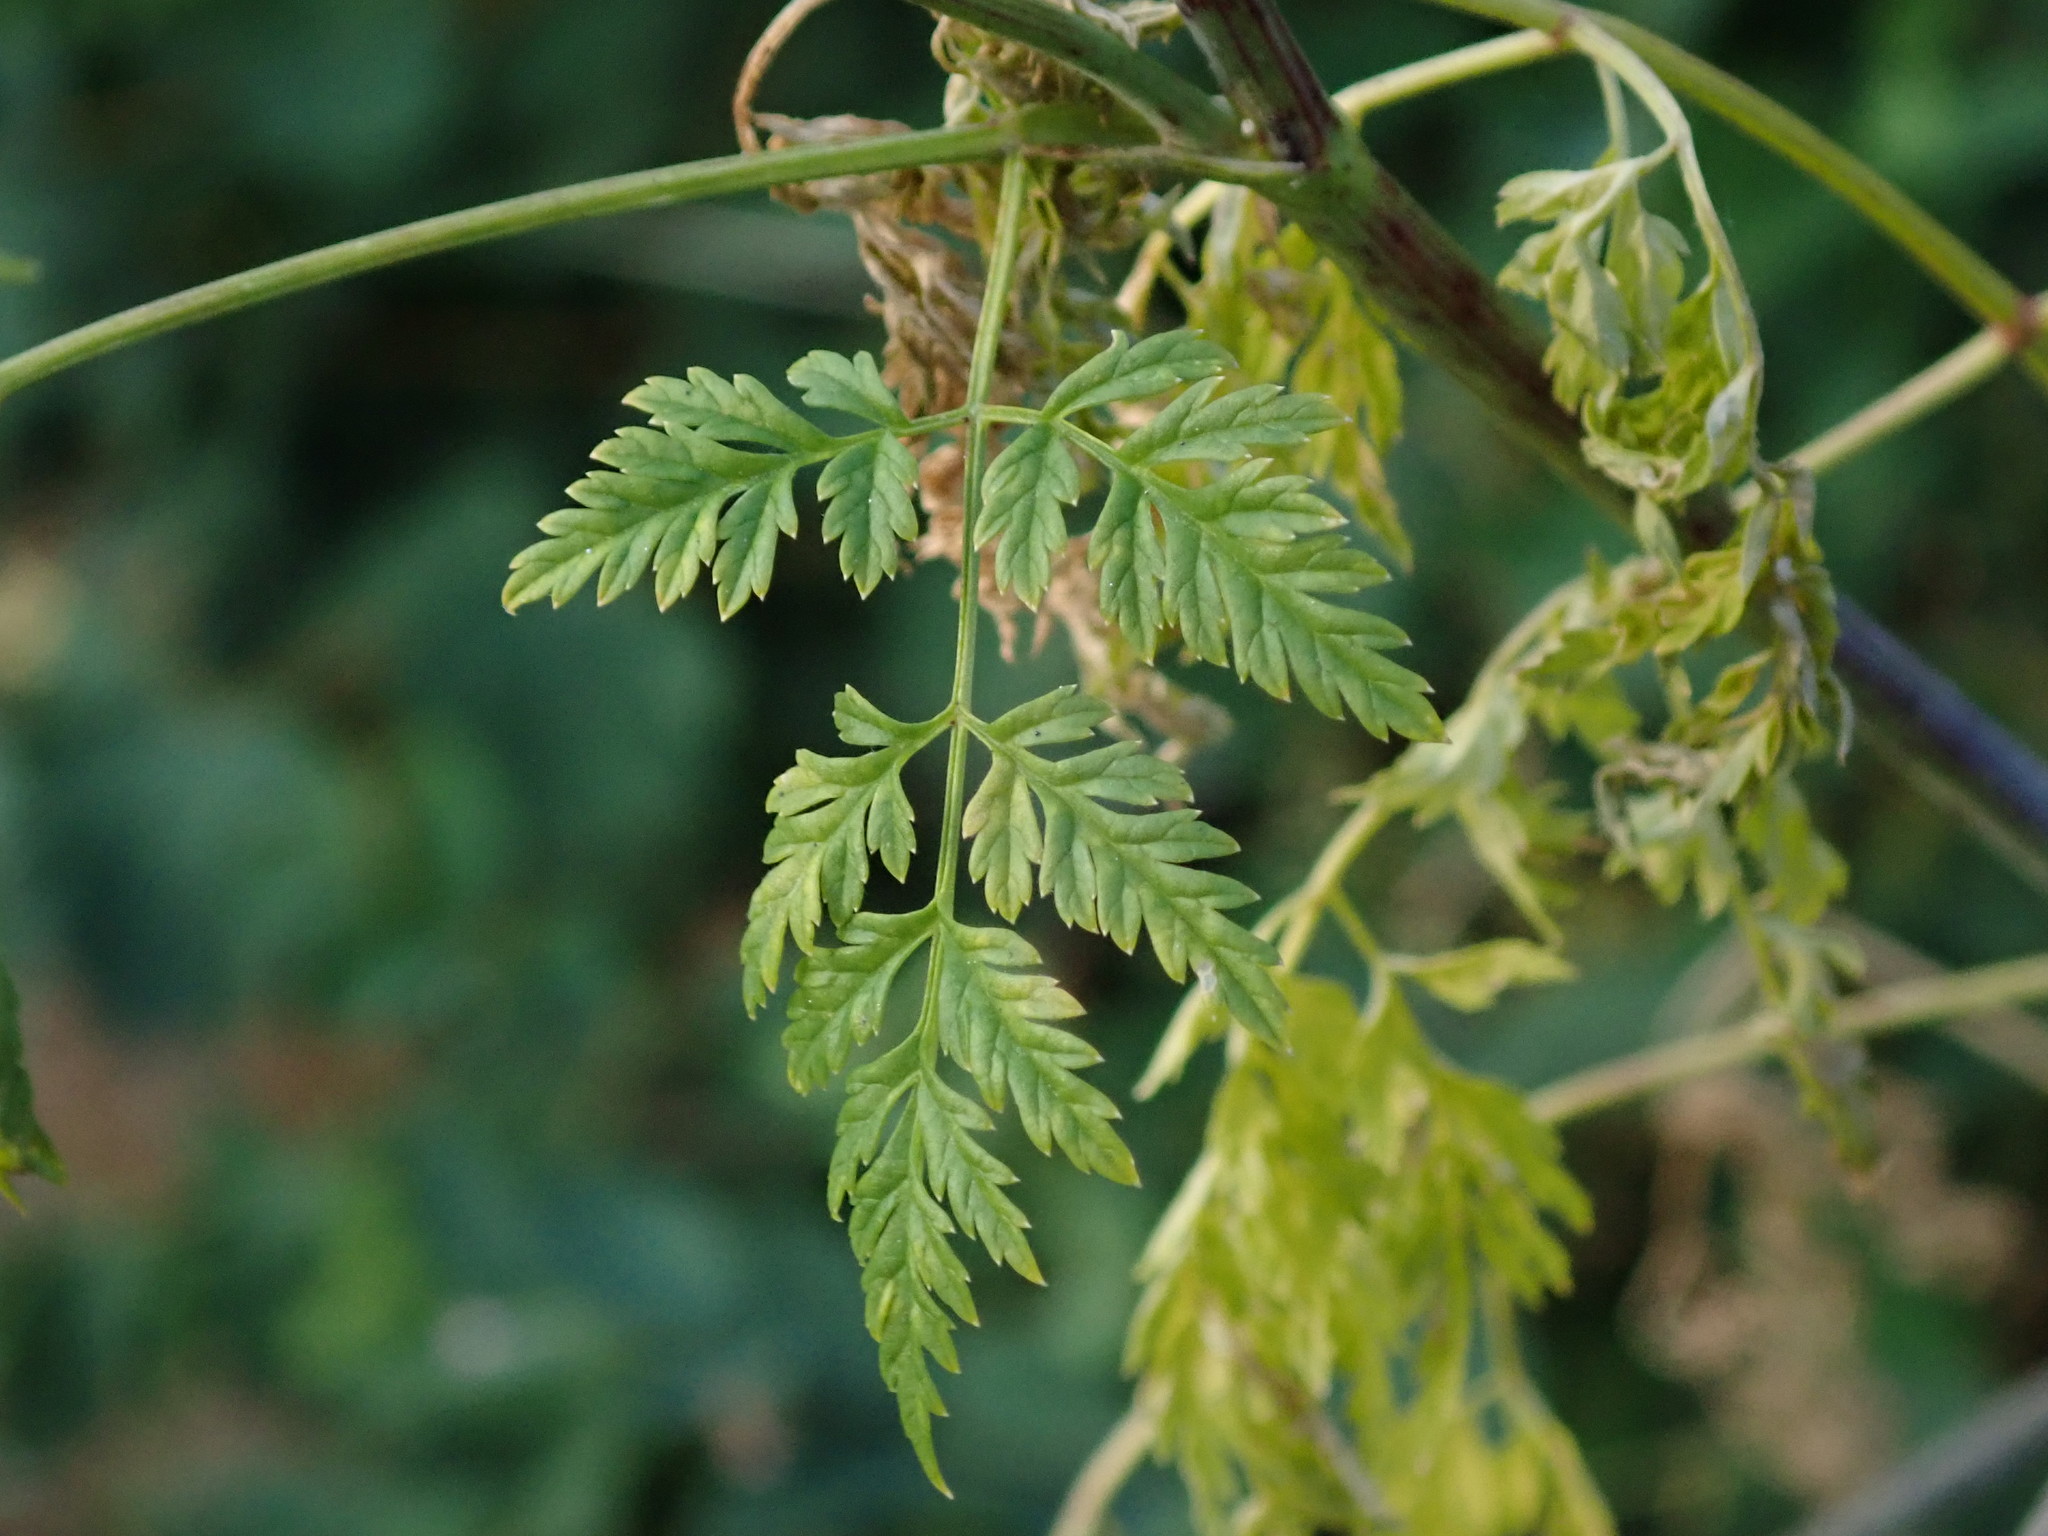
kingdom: Plantae
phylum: Tracheophyta
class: Magnoliopsida
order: Apiales
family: Apiaceae
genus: Conium
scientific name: Conium maculatum
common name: Hemlock
